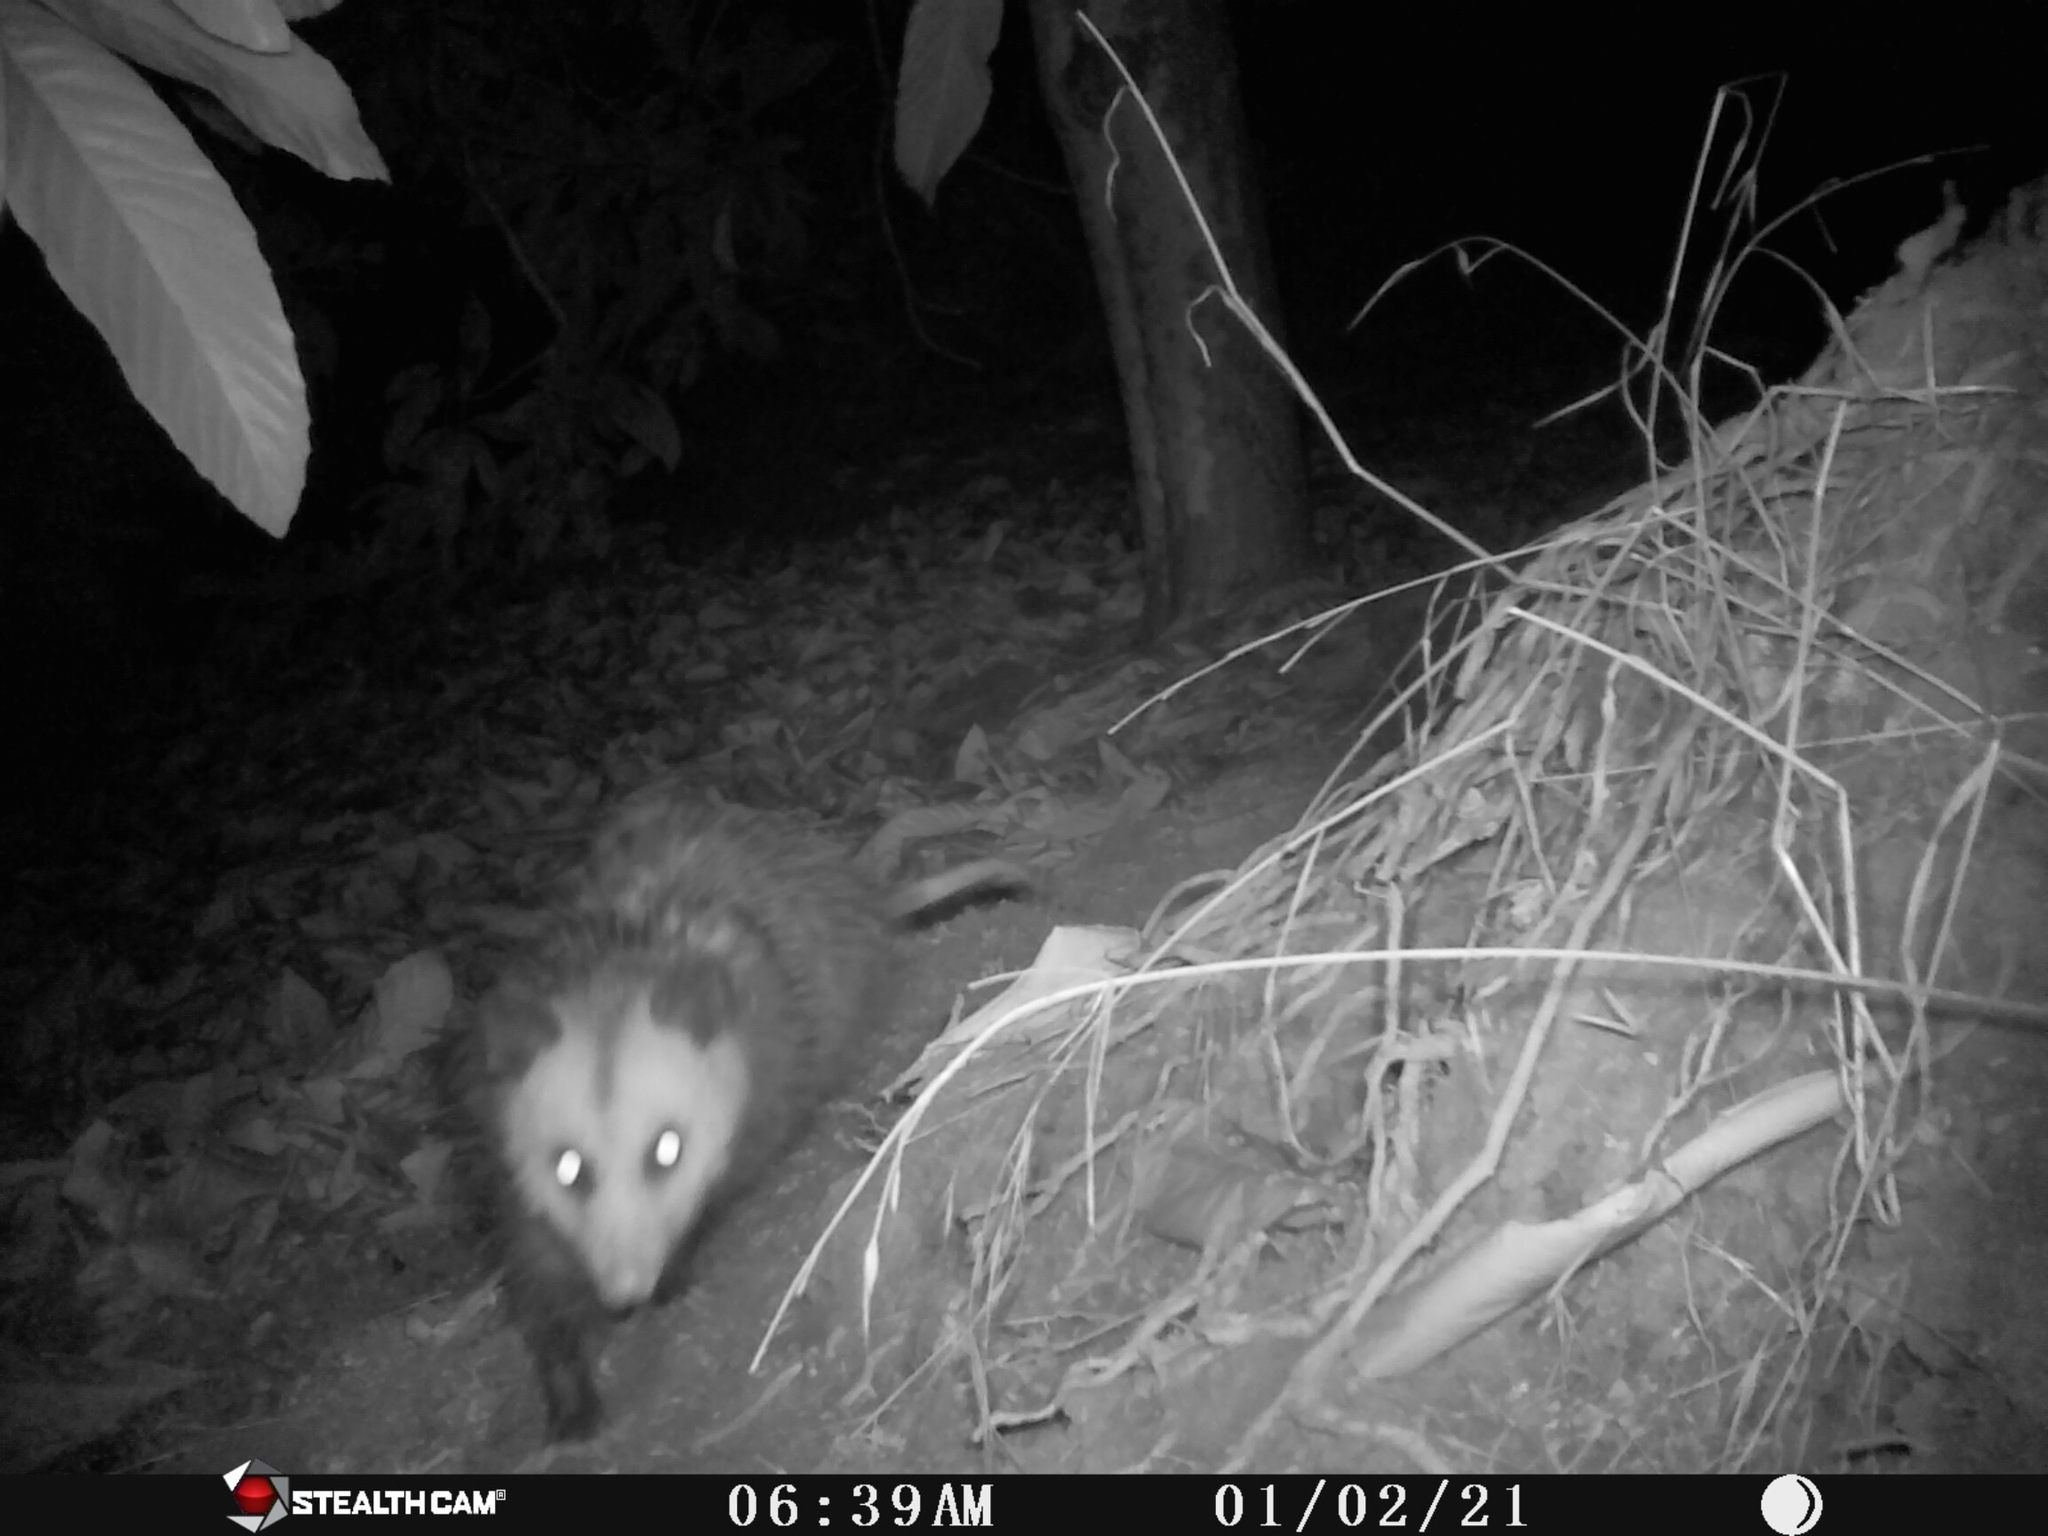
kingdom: Animalia
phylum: Chordata
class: Mammalia
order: Didelphimorphia
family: Didelphidae
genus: Didelphis
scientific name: Didelphis virginiana
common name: Virginia opossum
